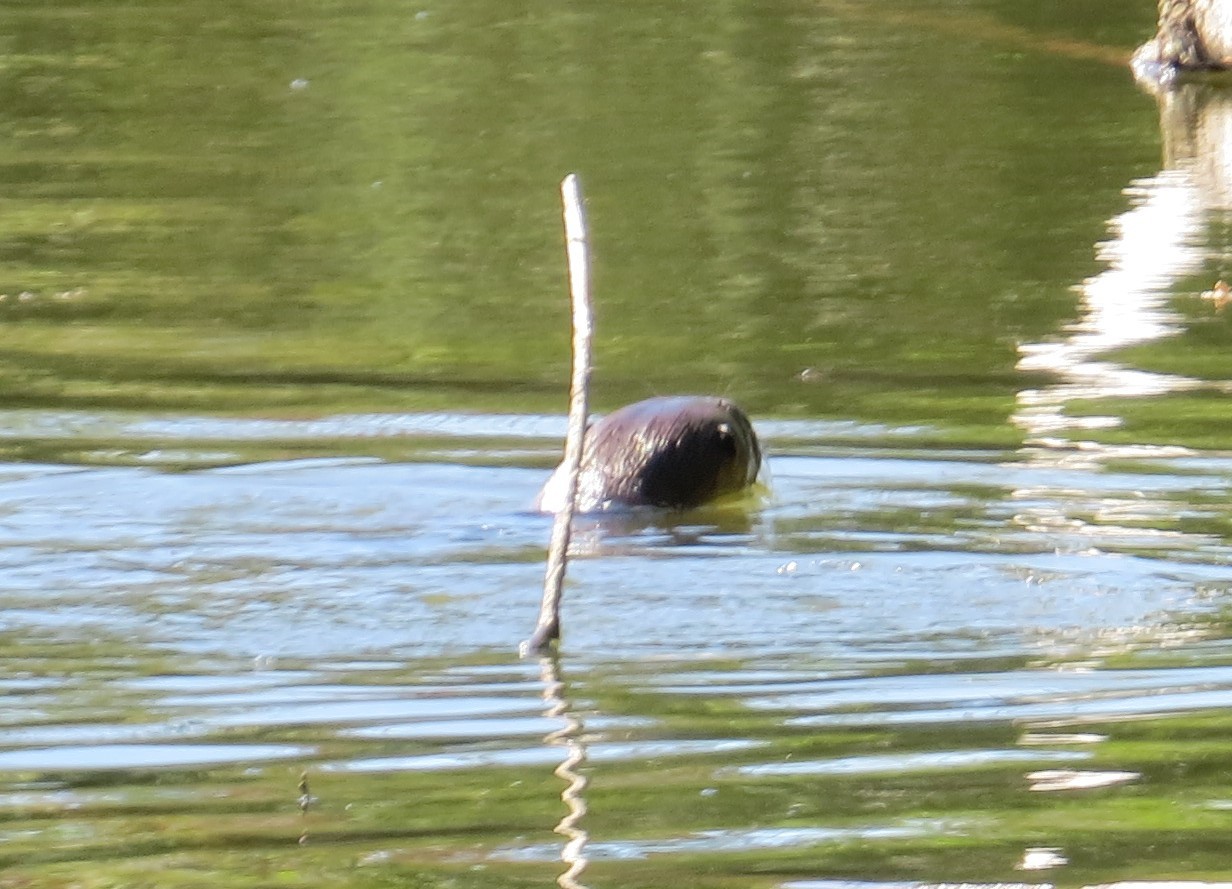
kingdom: Animalia
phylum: Chordata
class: Mammalia
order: Carnivora
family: Mustelidae
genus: Lontra
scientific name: Lontra canadensis
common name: North american river otter
